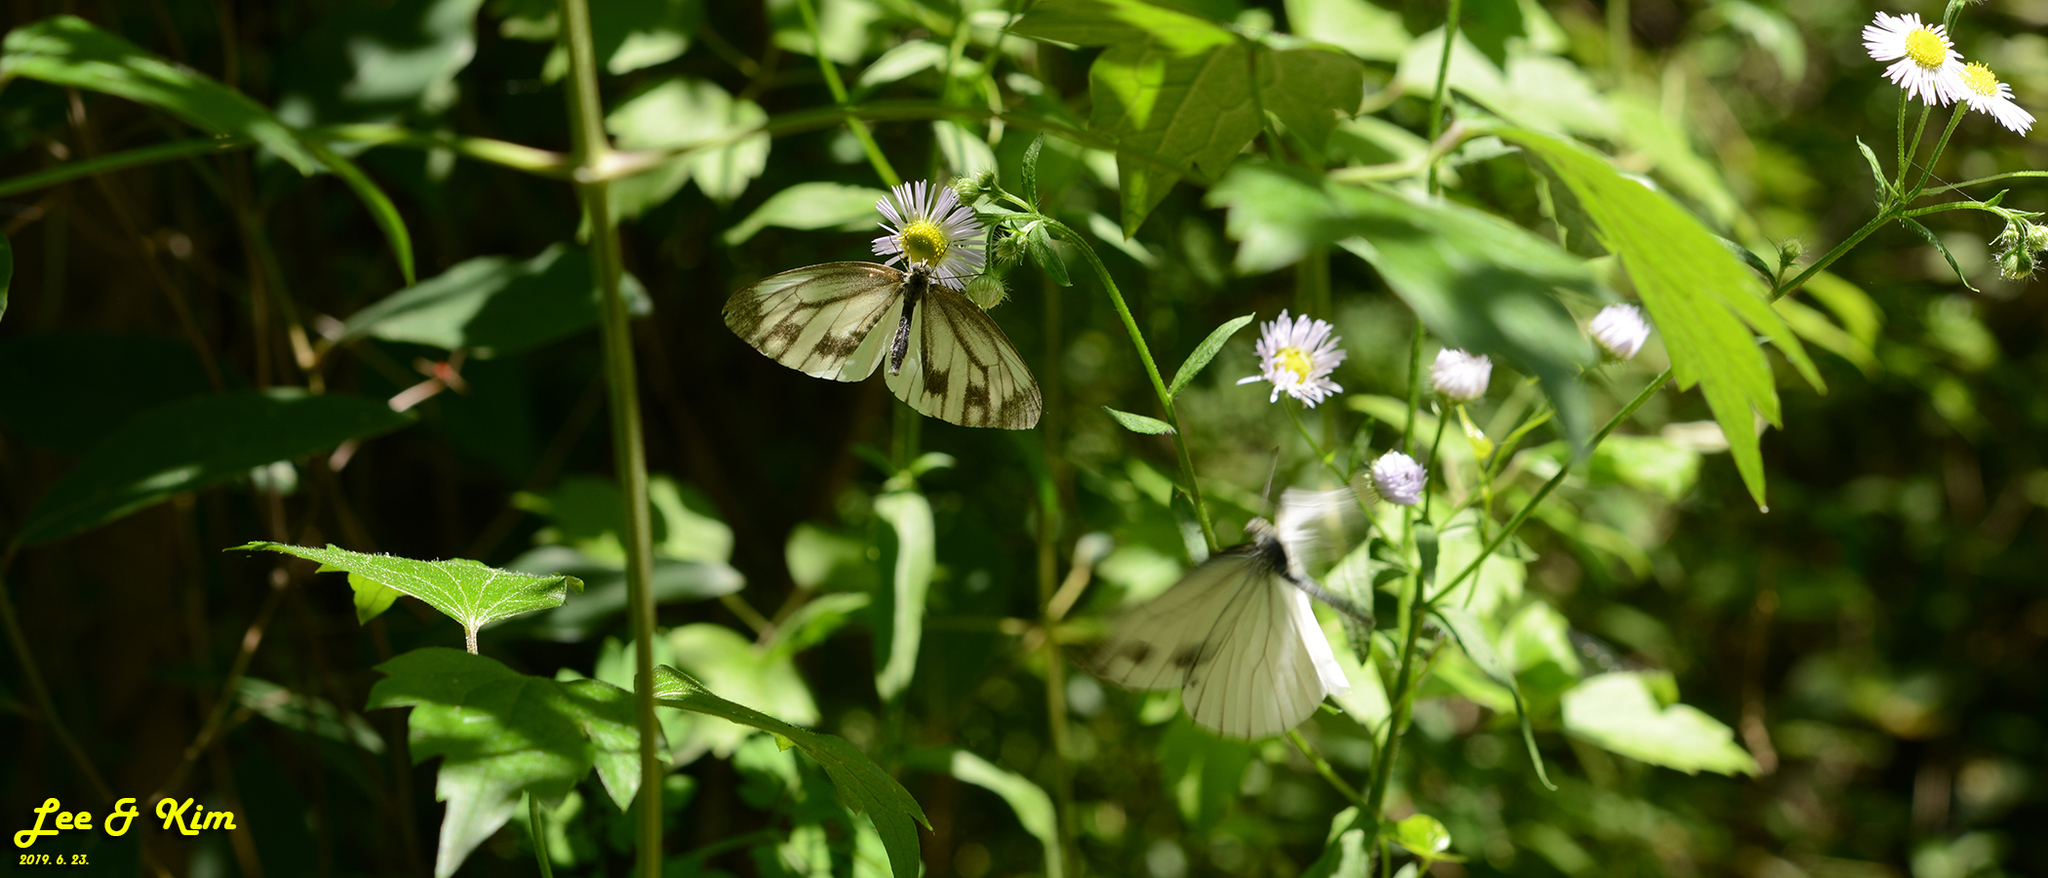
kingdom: Animalia
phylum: Arthropoda
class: Insecta
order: Lepidoptera
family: Pieridae
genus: Pieris
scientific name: Pieris melete
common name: Asian green-veined white
